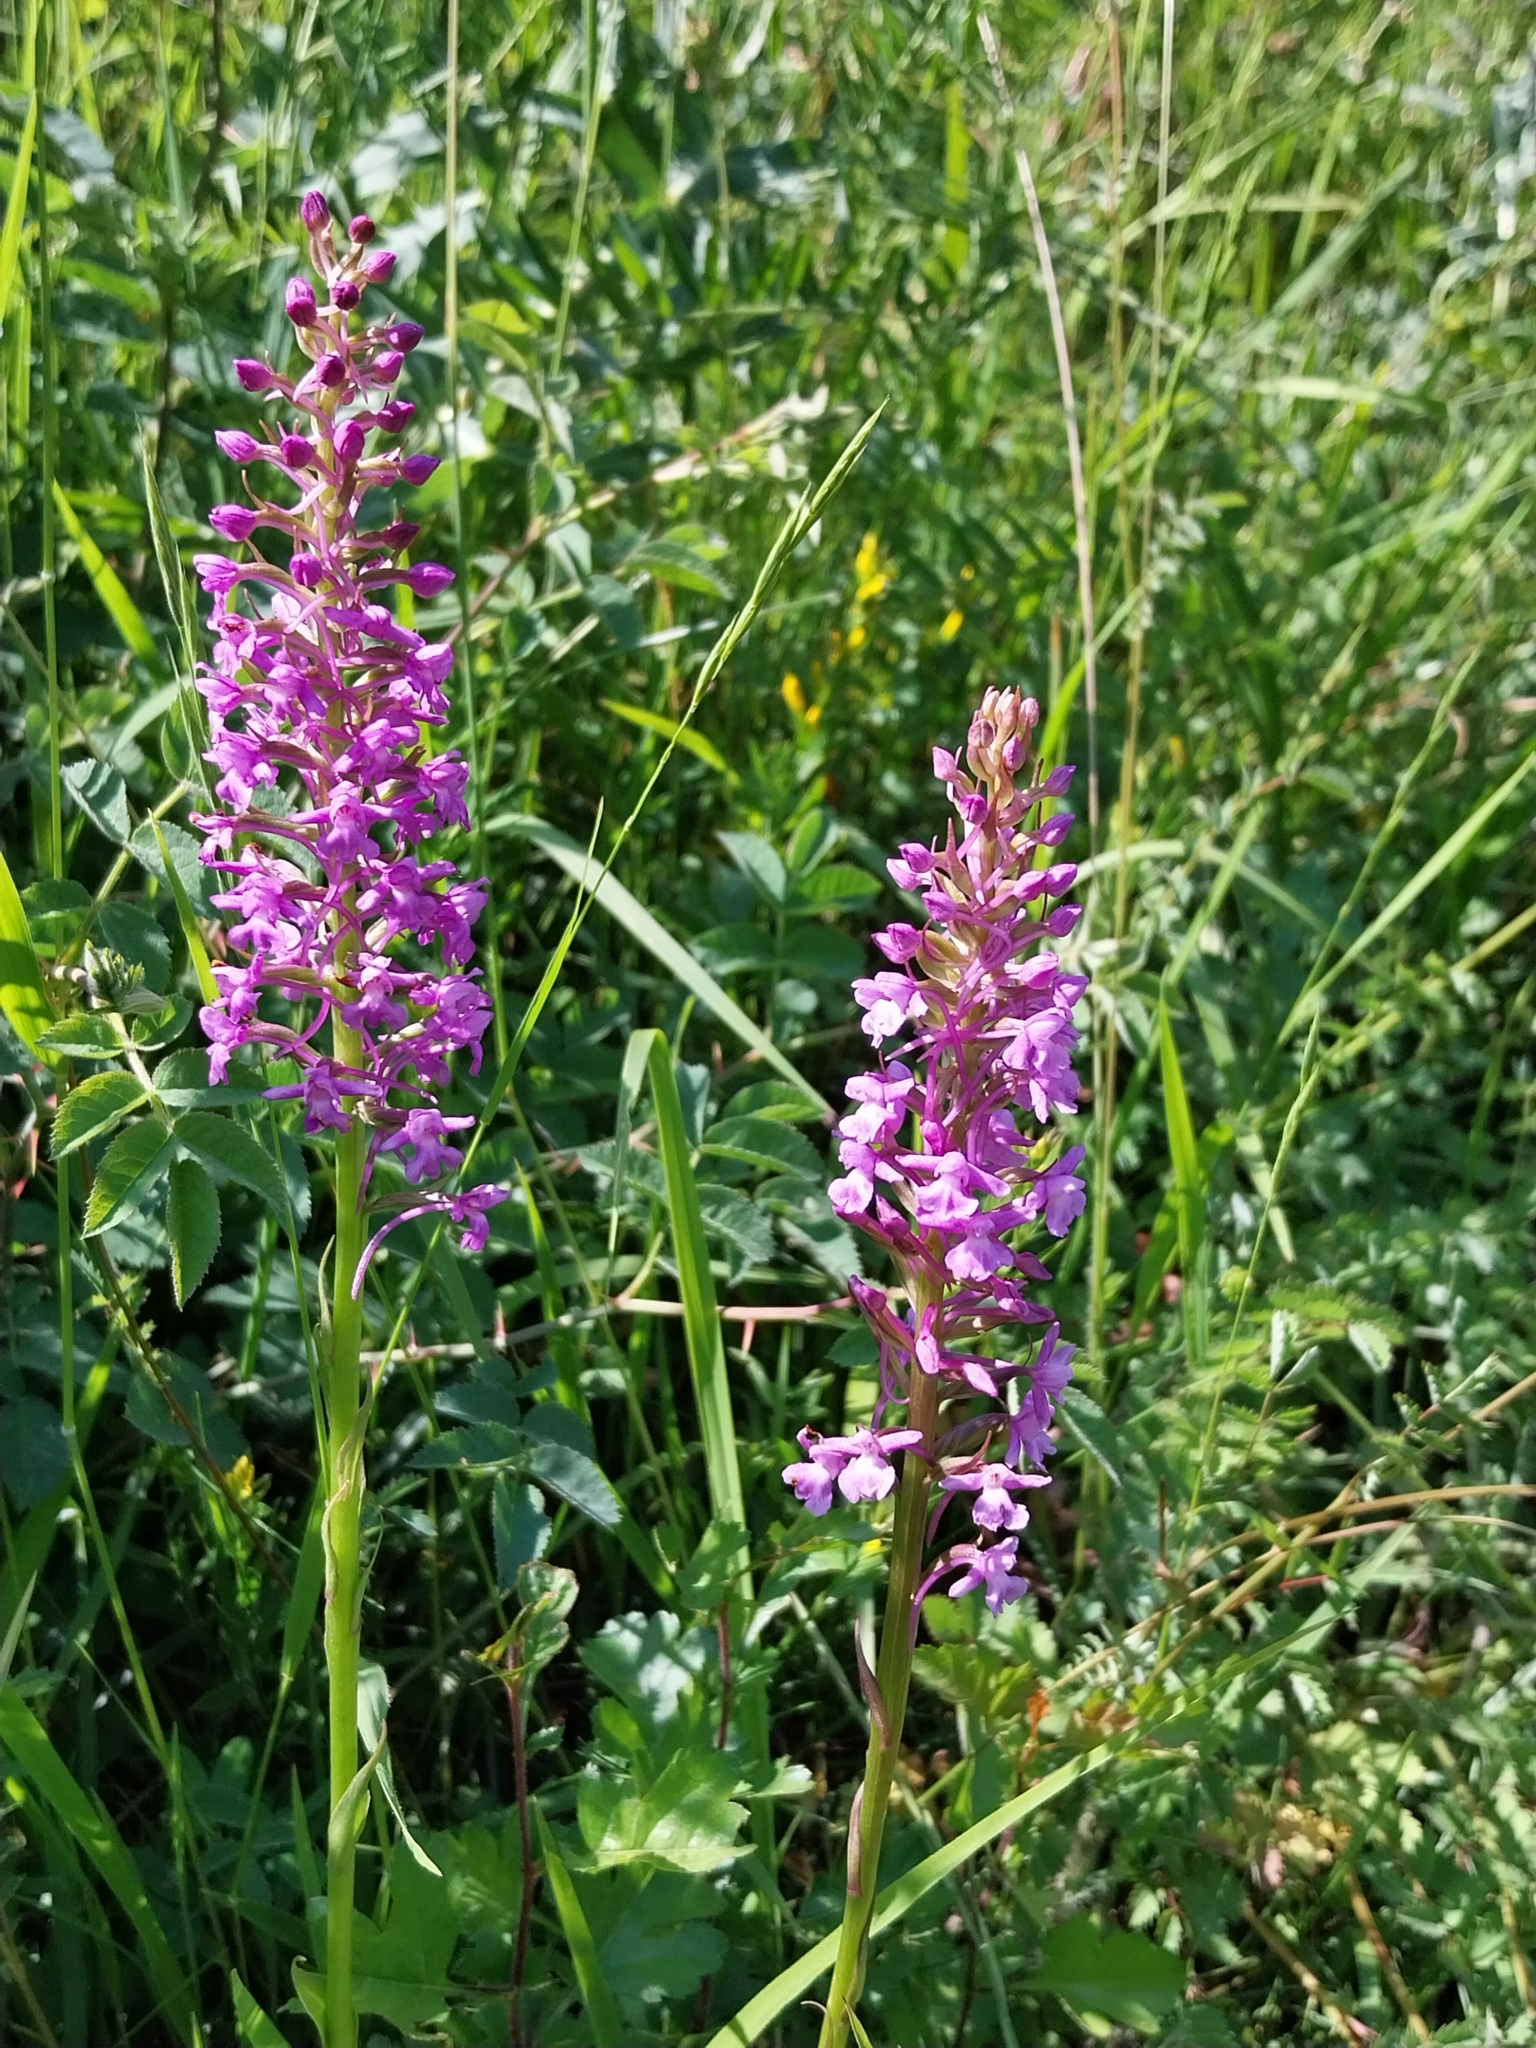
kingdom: Plantae
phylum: Tracheophyta
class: Liliopsida
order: Asparagales
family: Orchidaceae
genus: Gymnadenia
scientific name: Gymnadenia conopsea
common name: Fragrant orchid
